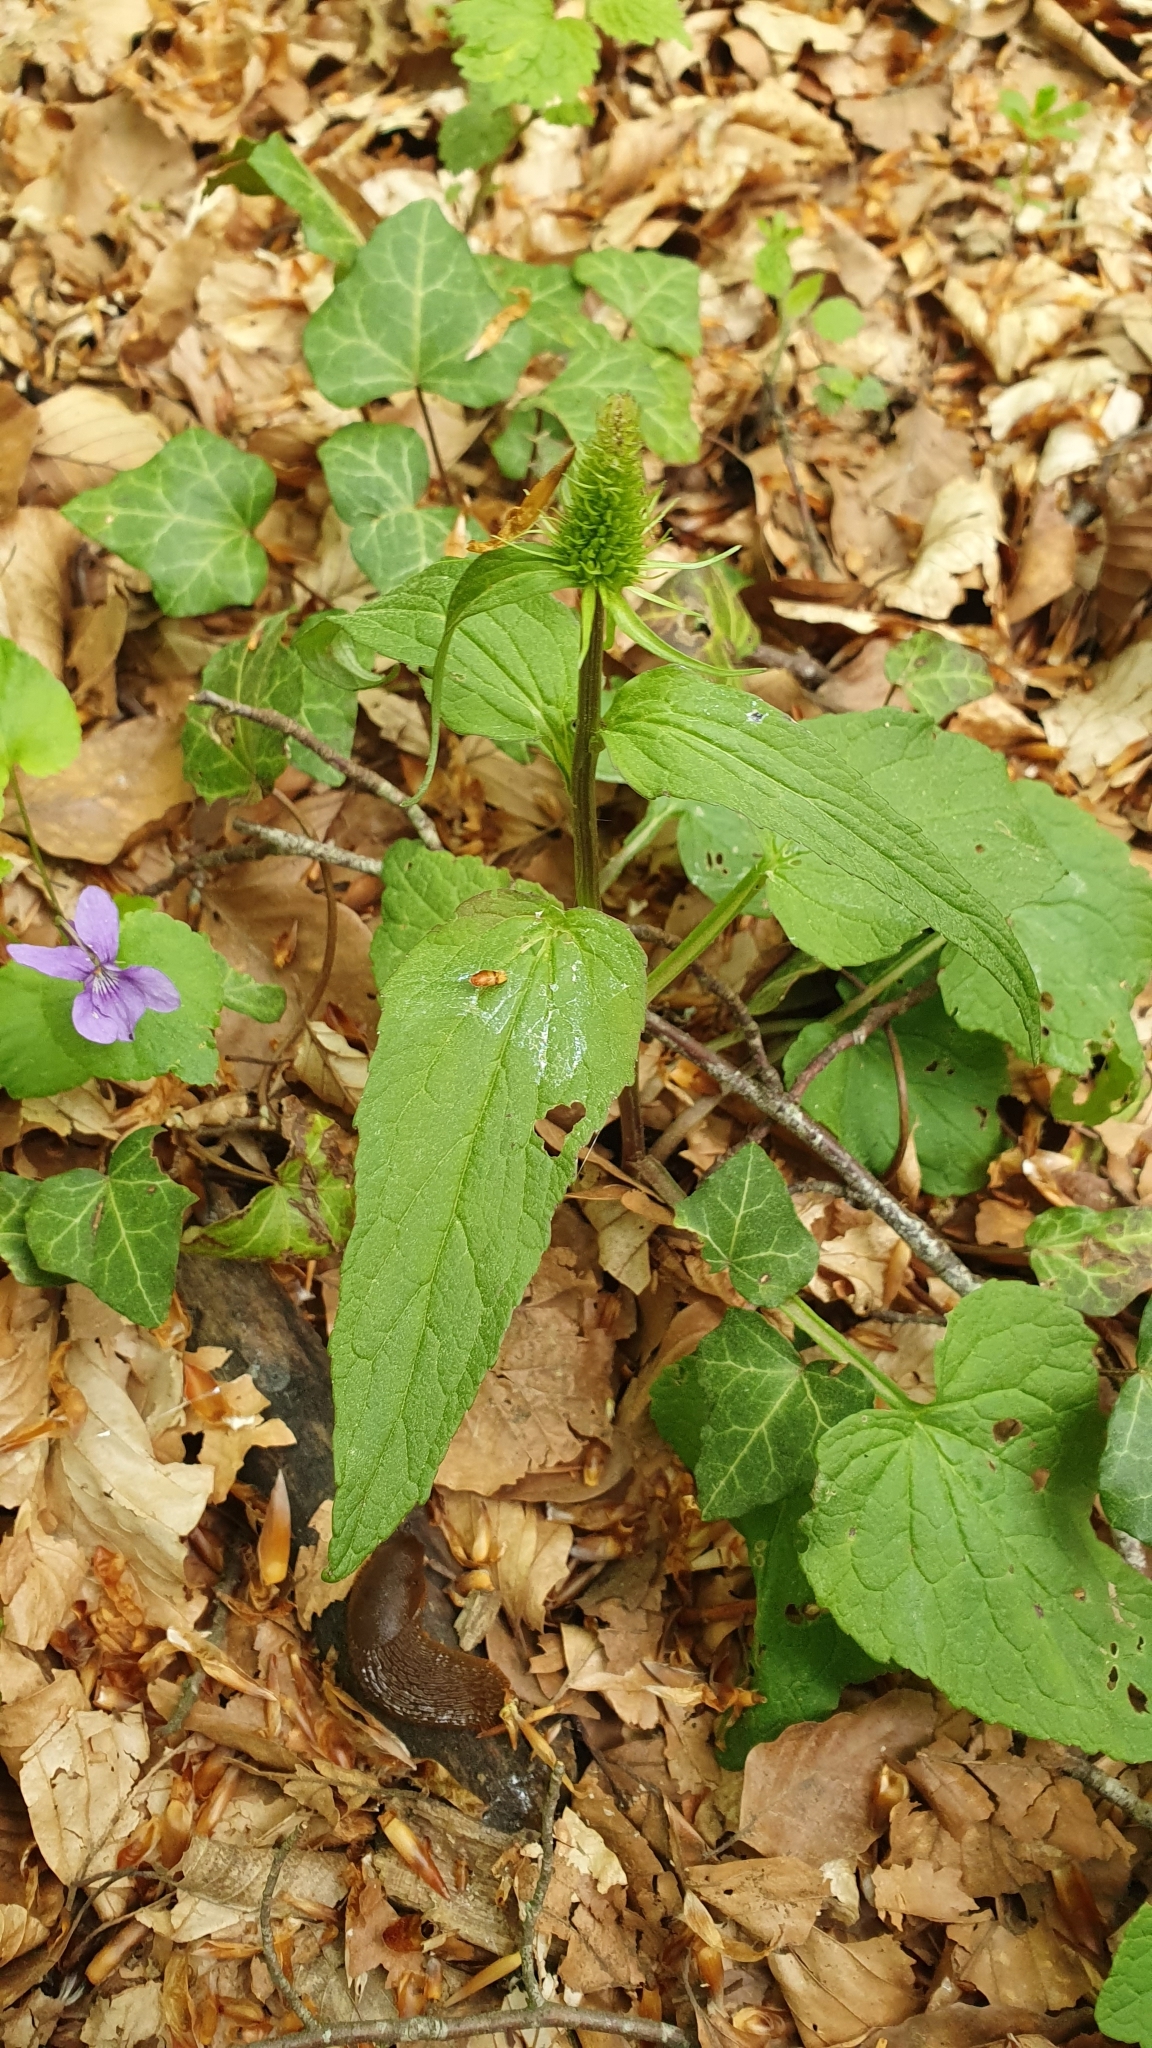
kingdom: Plantae
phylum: Tracheophyta
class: Magnoliopsida
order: Asterales
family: Campanulaceae
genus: Phyteuma
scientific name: Phyteuma spicatum
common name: Spiked rampion
